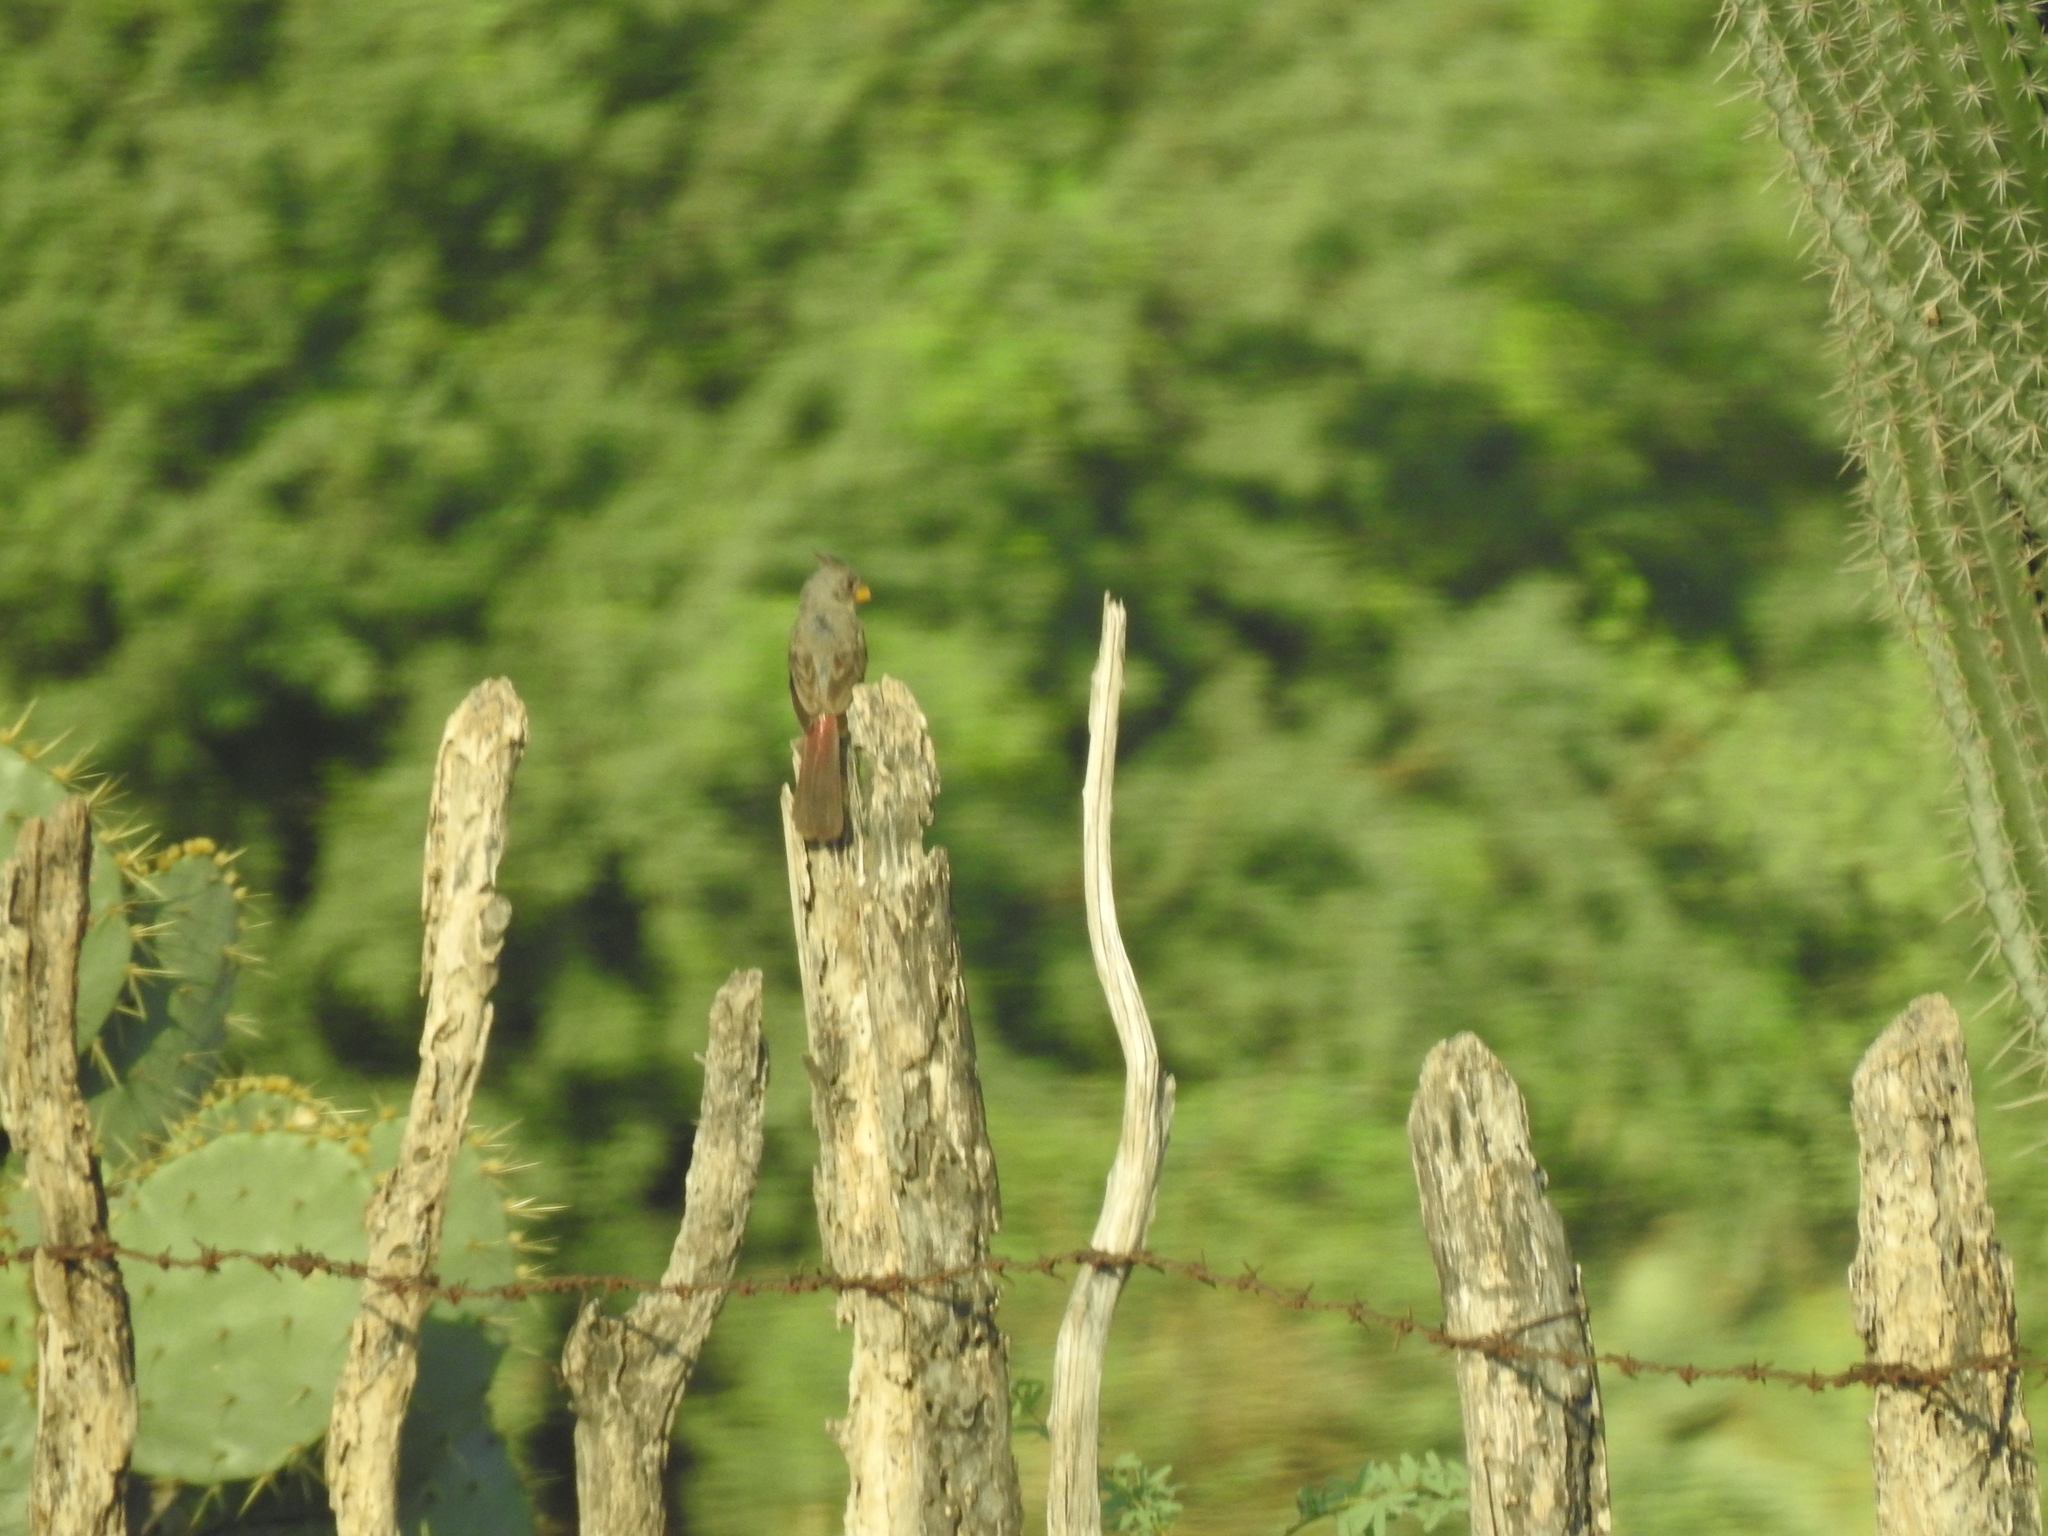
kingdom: Animalia
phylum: Chordata
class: Aves
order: Passeriformes
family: Cardinalidae
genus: Cardinalis
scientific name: Cardinalis sinuatus
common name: Pyrrhuloxia
